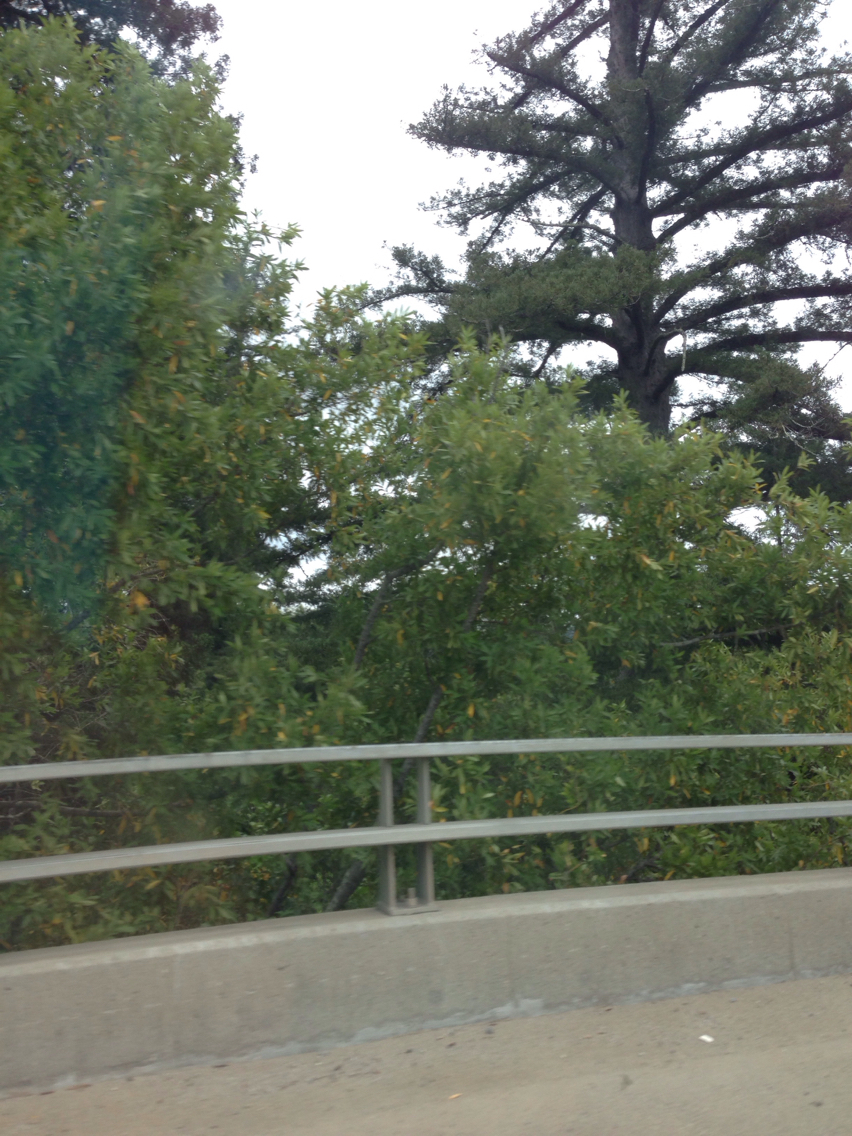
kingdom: Plantae
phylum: Tracheophyta
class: Pinopsida
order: Pinales
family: Cupressaceae
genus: Sequoia
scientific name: Sequoia sempervirens
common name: Coast redwood
